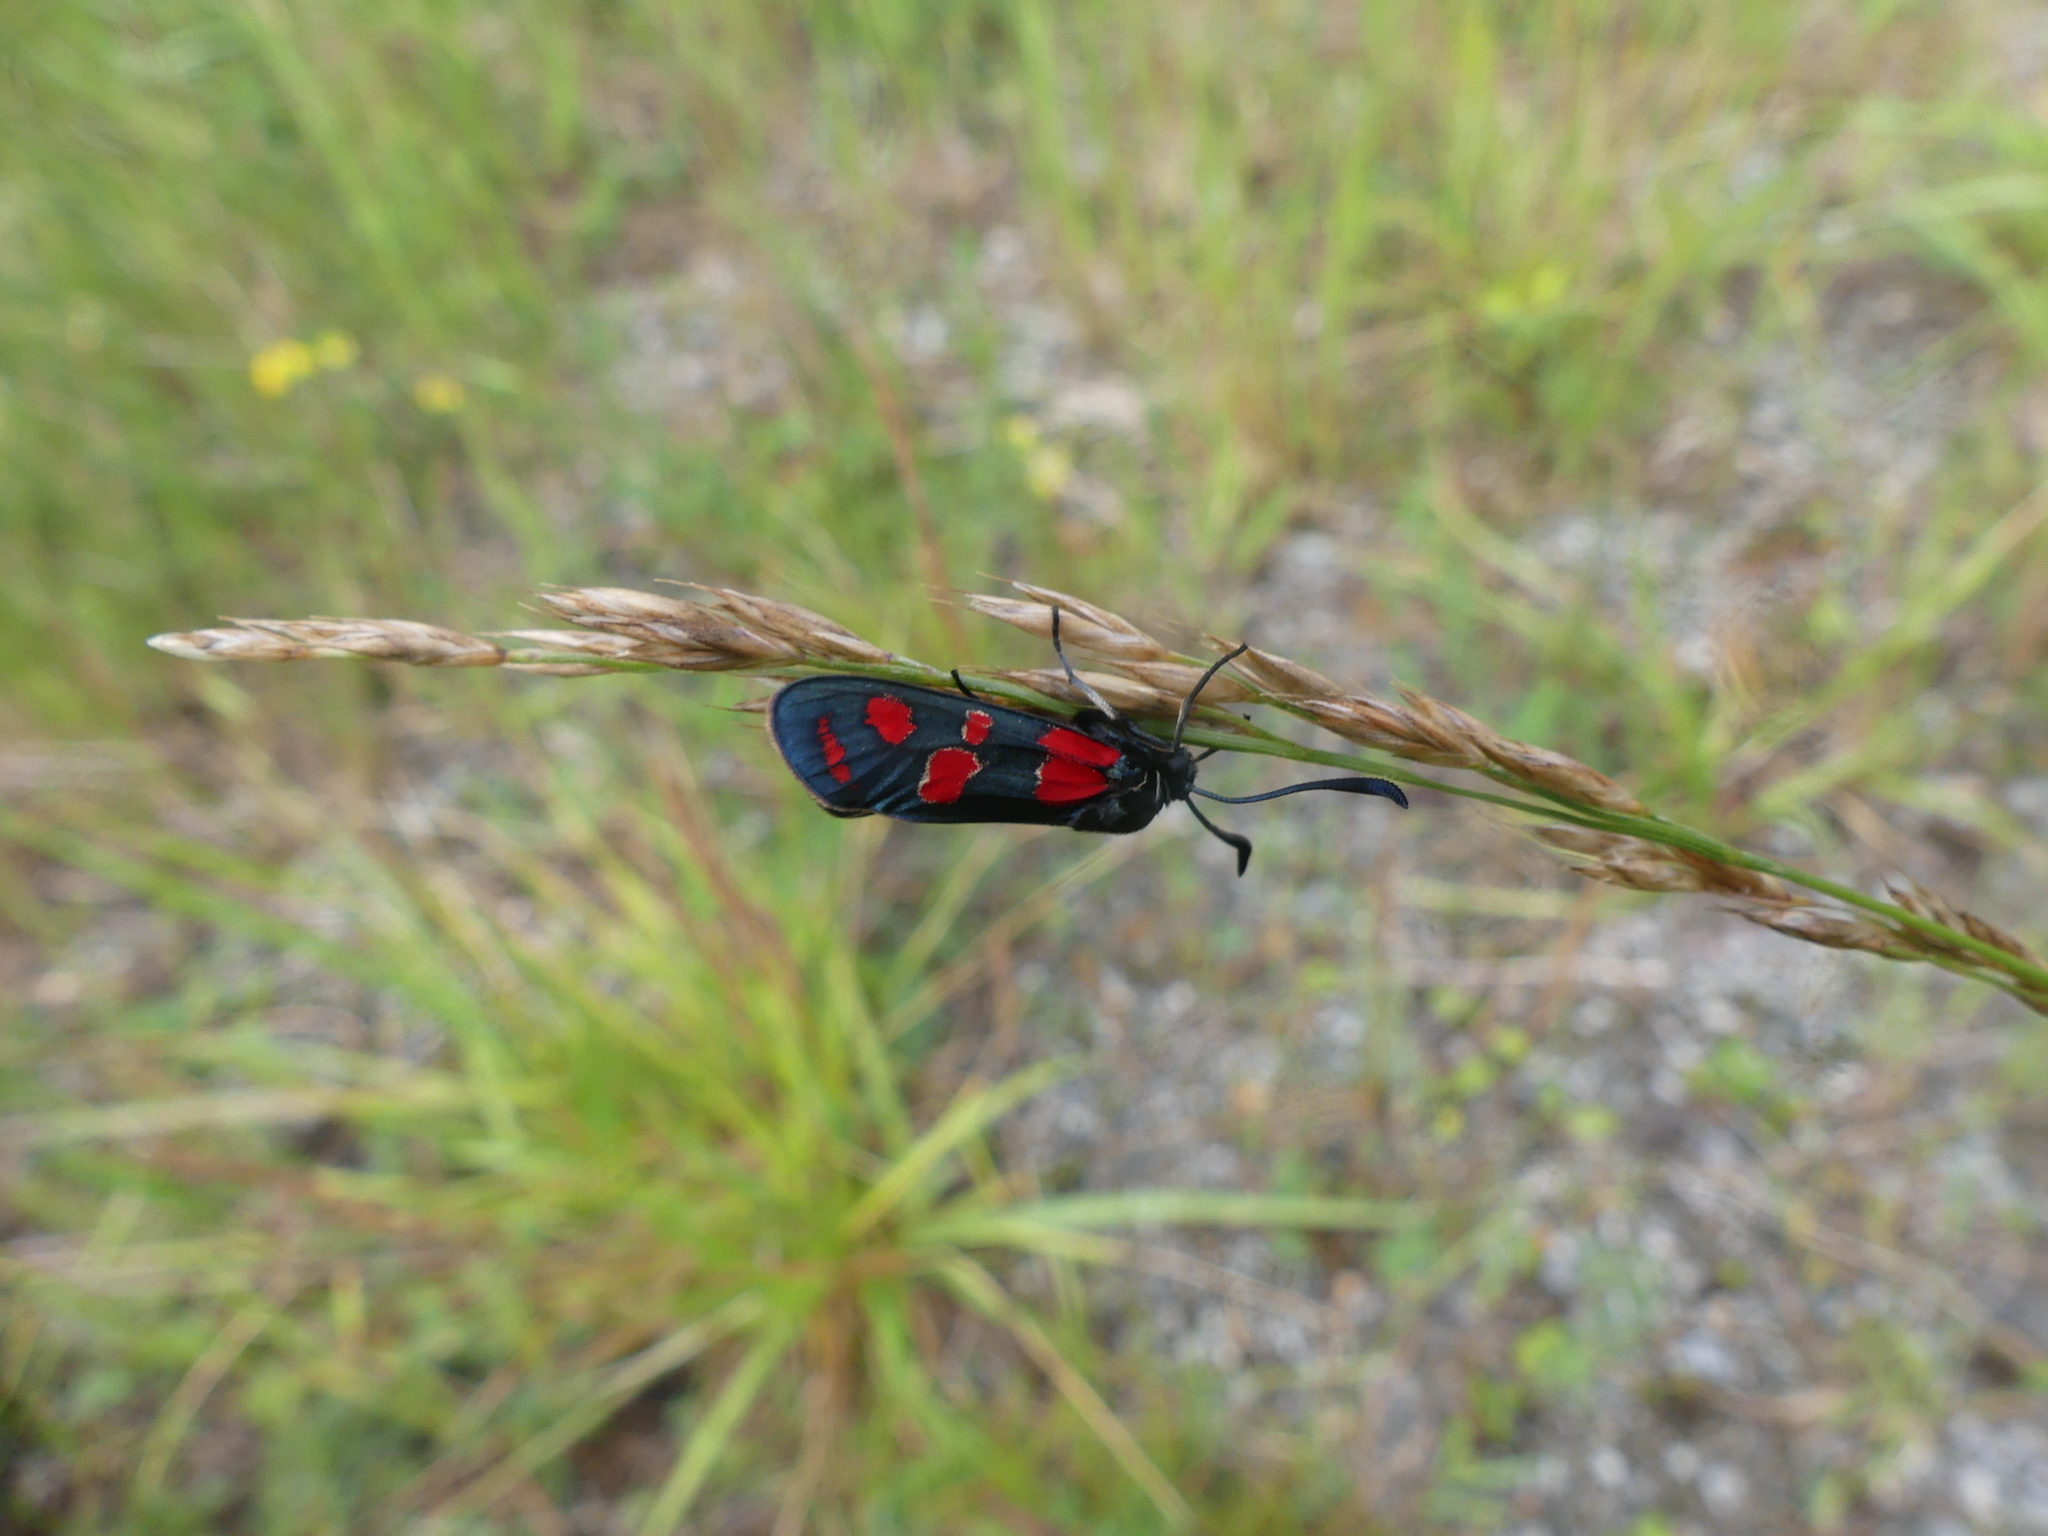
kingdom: Animalia
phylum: Arthropoda
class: Insecta
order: Lepidoptera
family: Zygaenidae
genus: Zygaena
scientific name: Zygaena carniolica
